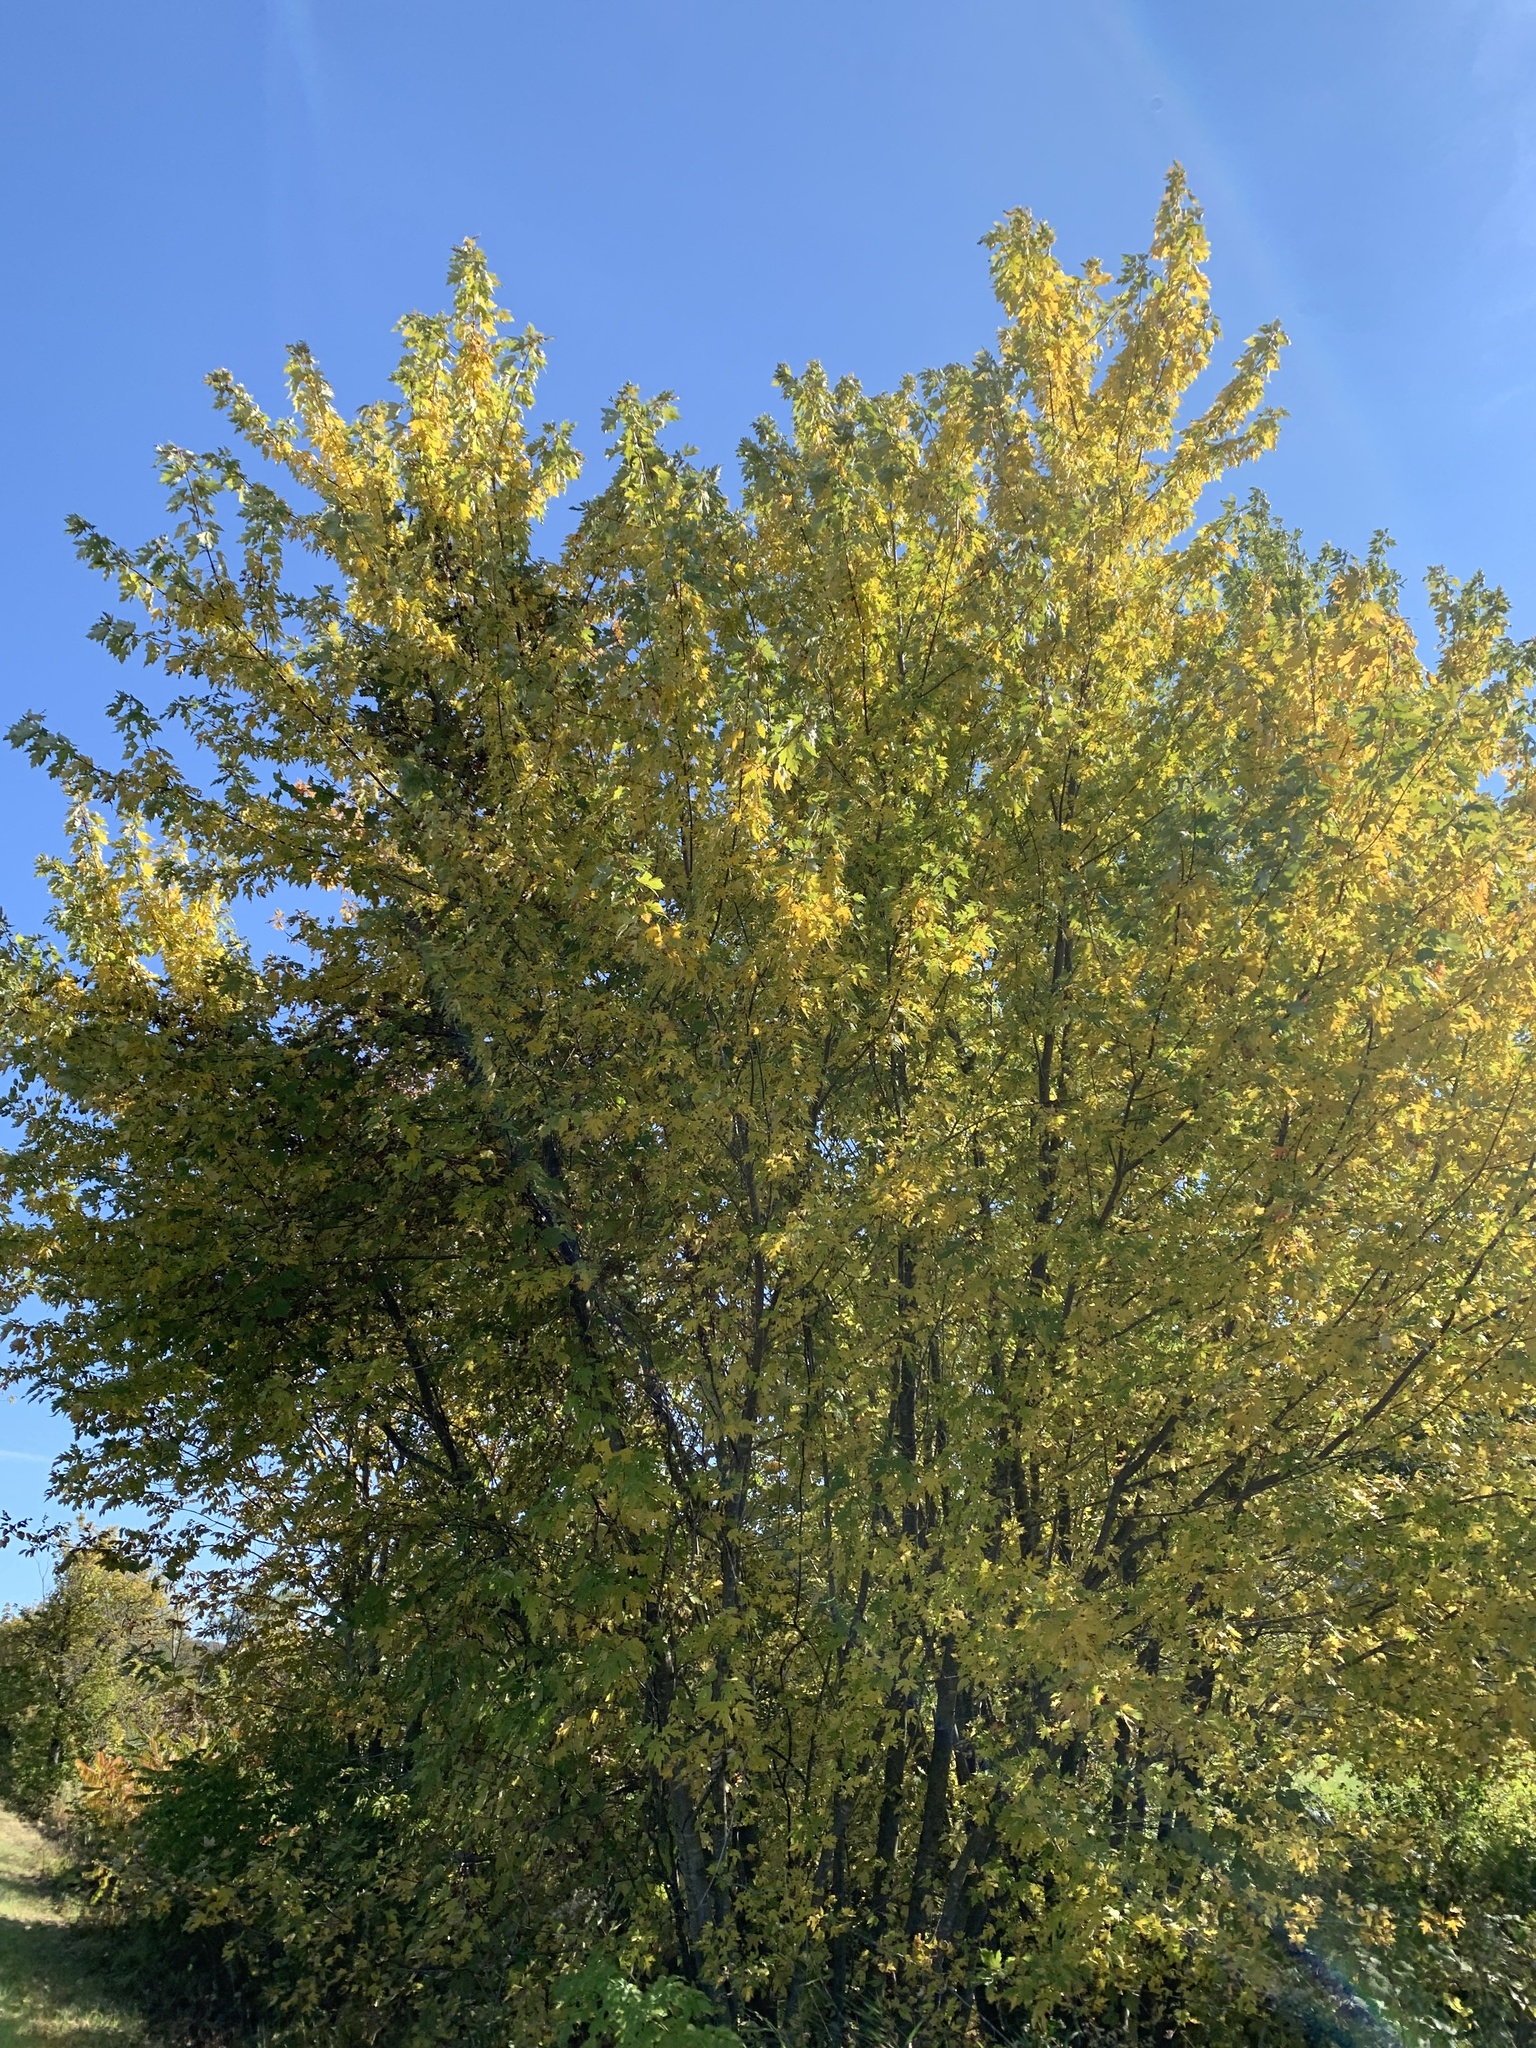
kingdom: Plantae
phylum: Tracheophyta
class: Magnoliopsida
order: Sapindales
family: Sapindaceae
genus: Acer
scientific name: Acer saccharinum
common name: Silver maple
